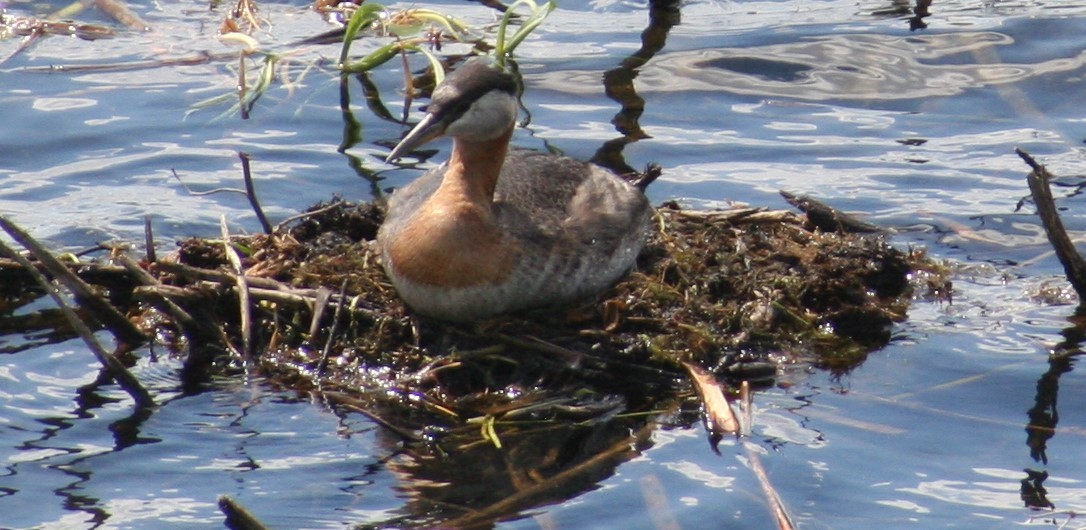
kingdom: Animalia
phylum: Chordata
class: Aves
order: Podicipediformes
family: Podicipedidae
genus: Podiceps
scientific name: Podiceps grisegena
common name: Red-necked grebe
